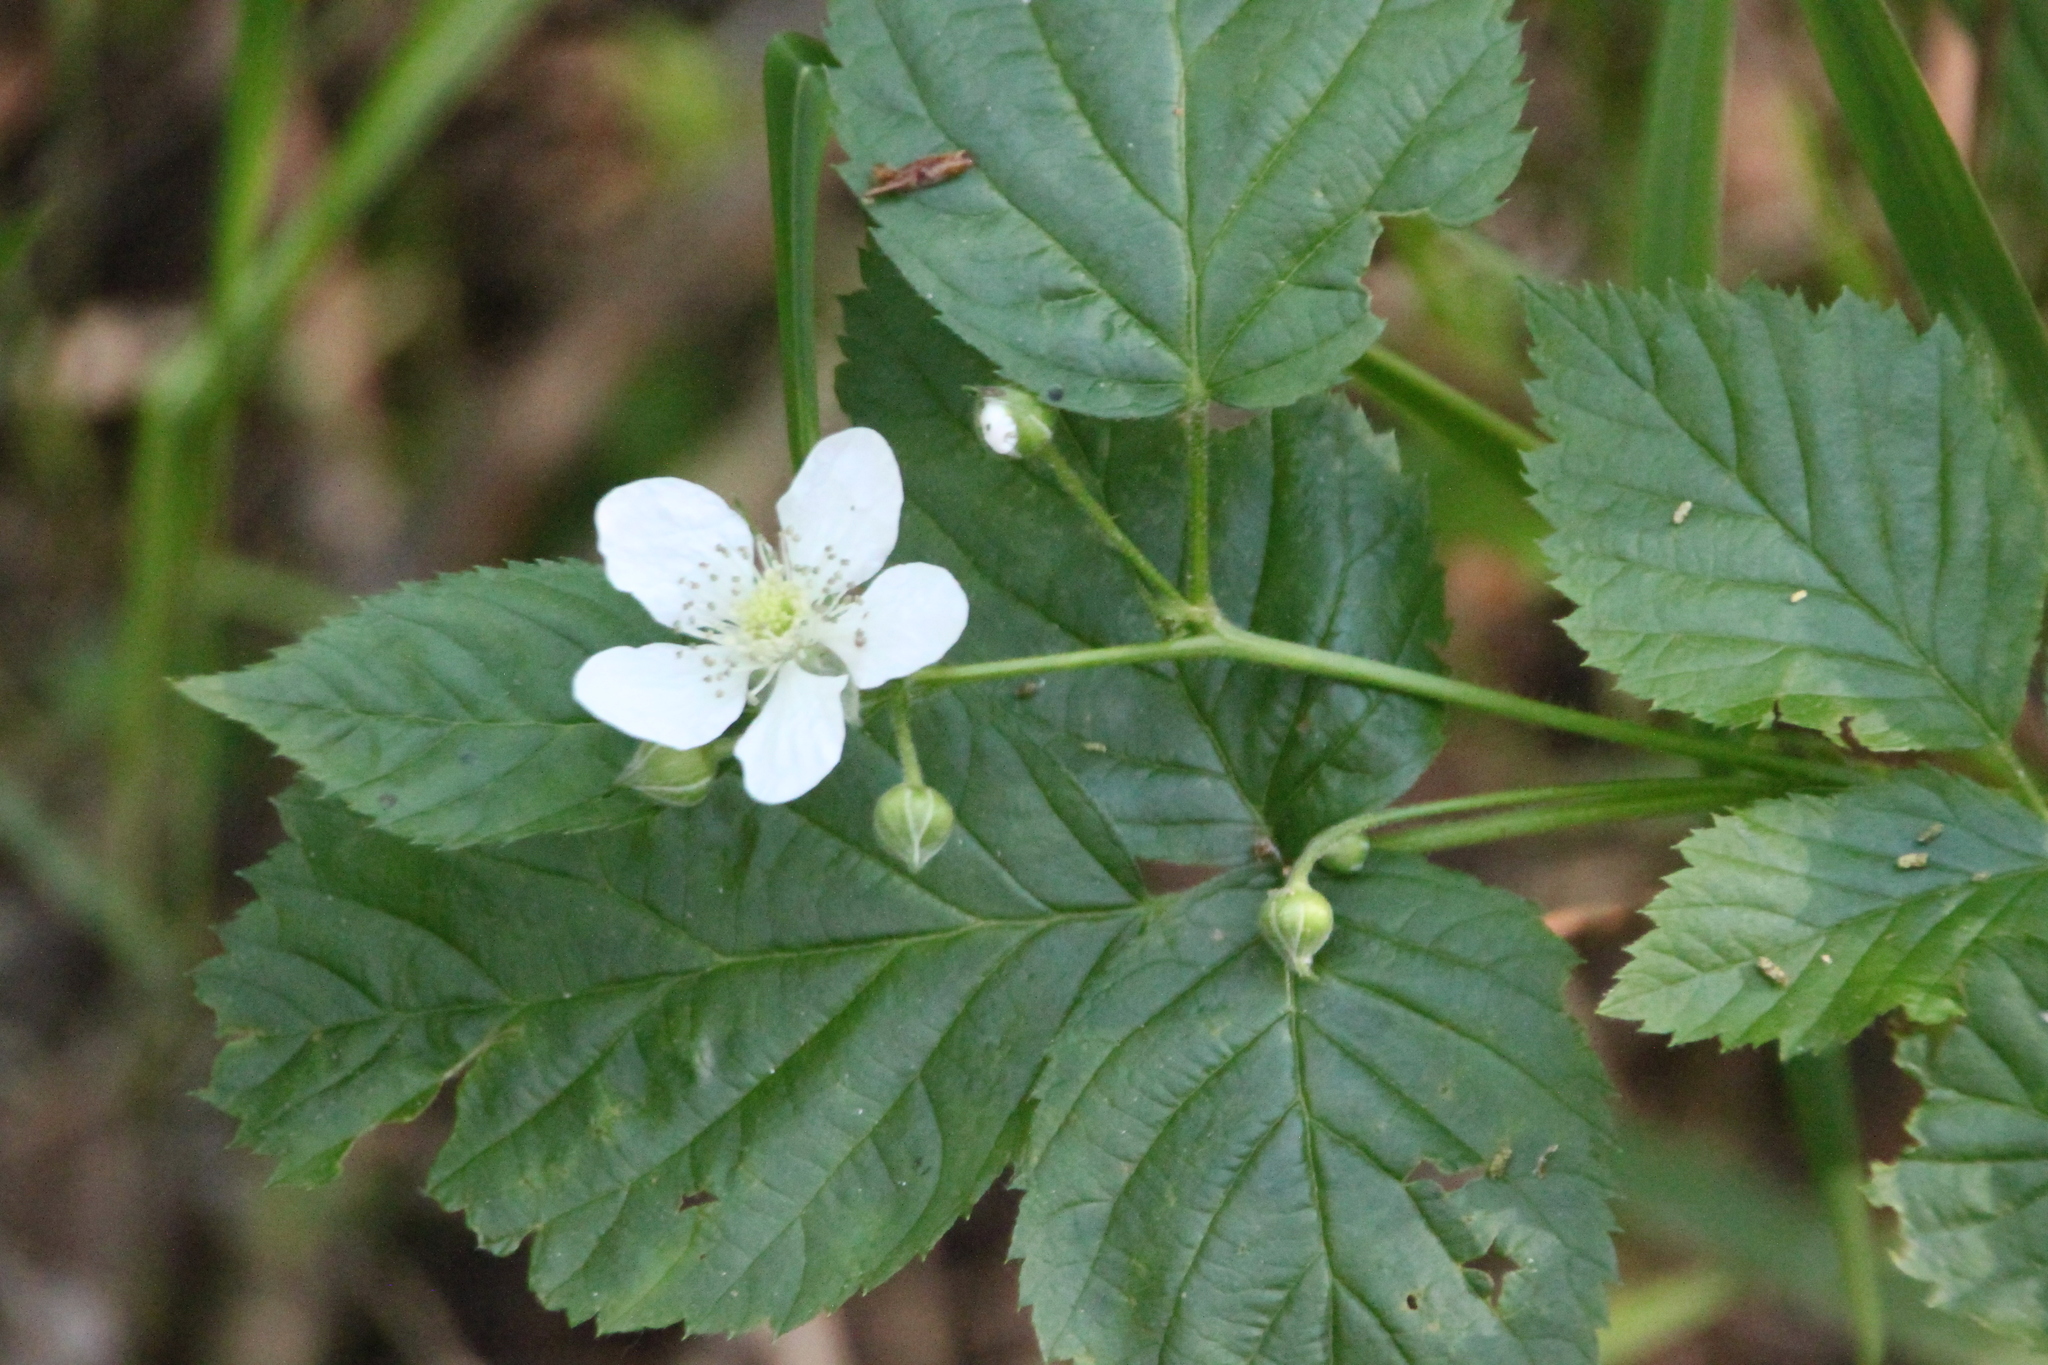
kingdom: Plantae
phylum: Tracheophyta
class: Magnoliopsida
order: Rosales
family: Rosaceae
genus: Rubus
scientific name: Rubus polonicus
